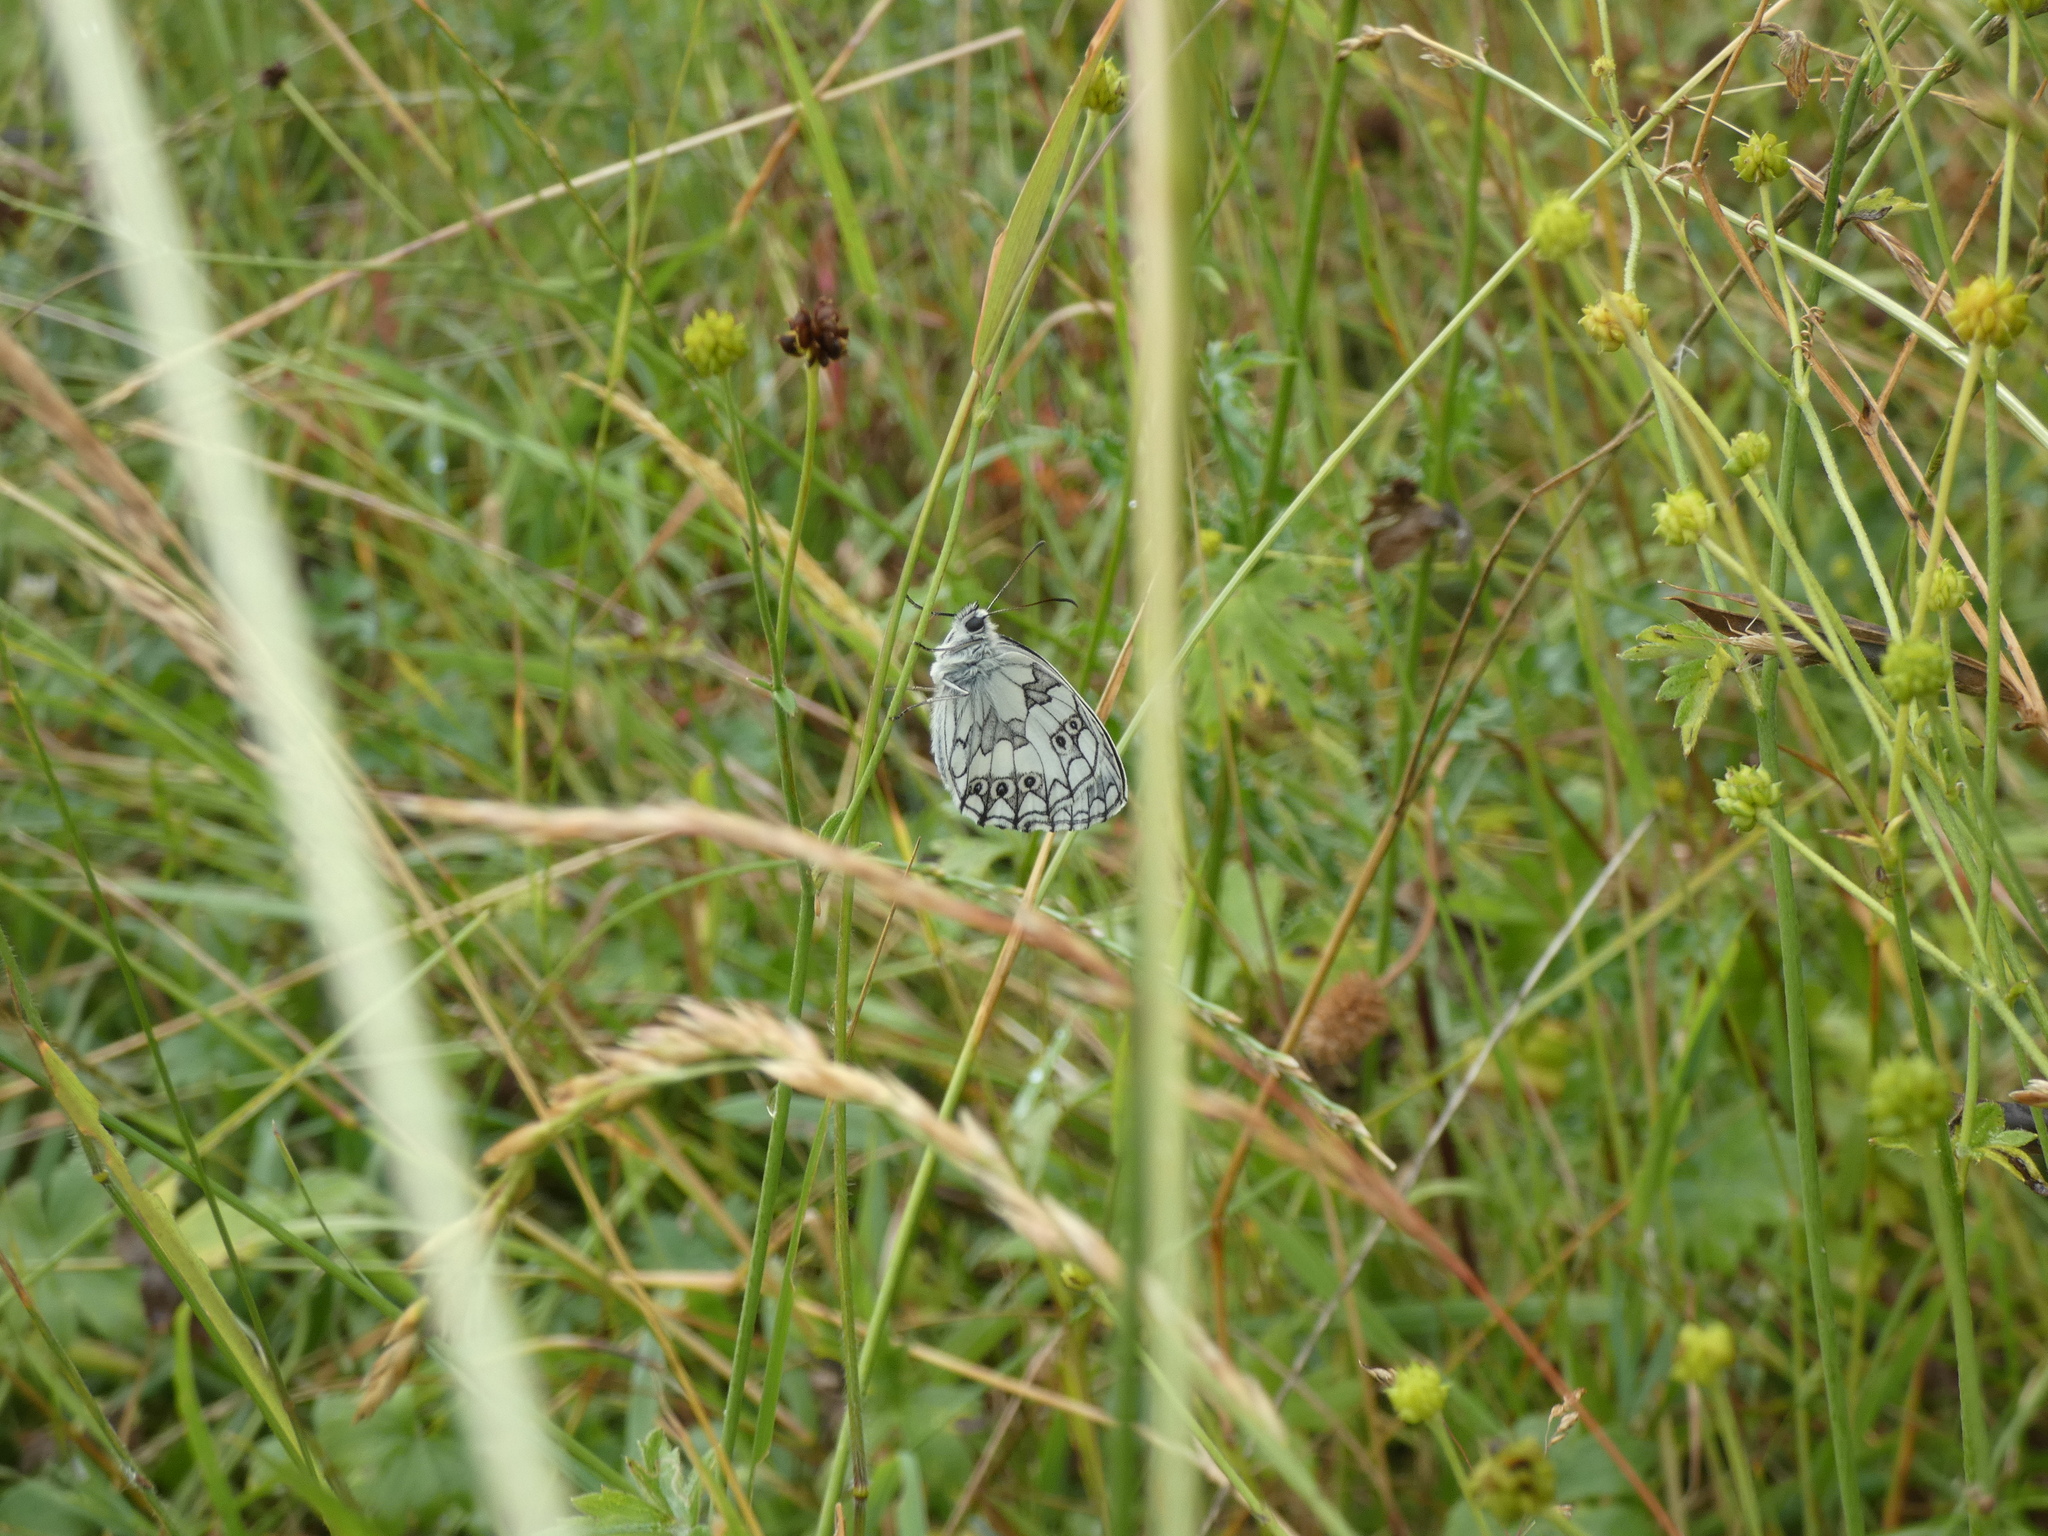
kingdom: Animalia
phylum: Arthropoda
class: Insecta
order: Lepidoptera
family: Nymphalidae
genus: Melanargia
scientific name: Melanargia galathea
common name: Marbled white
